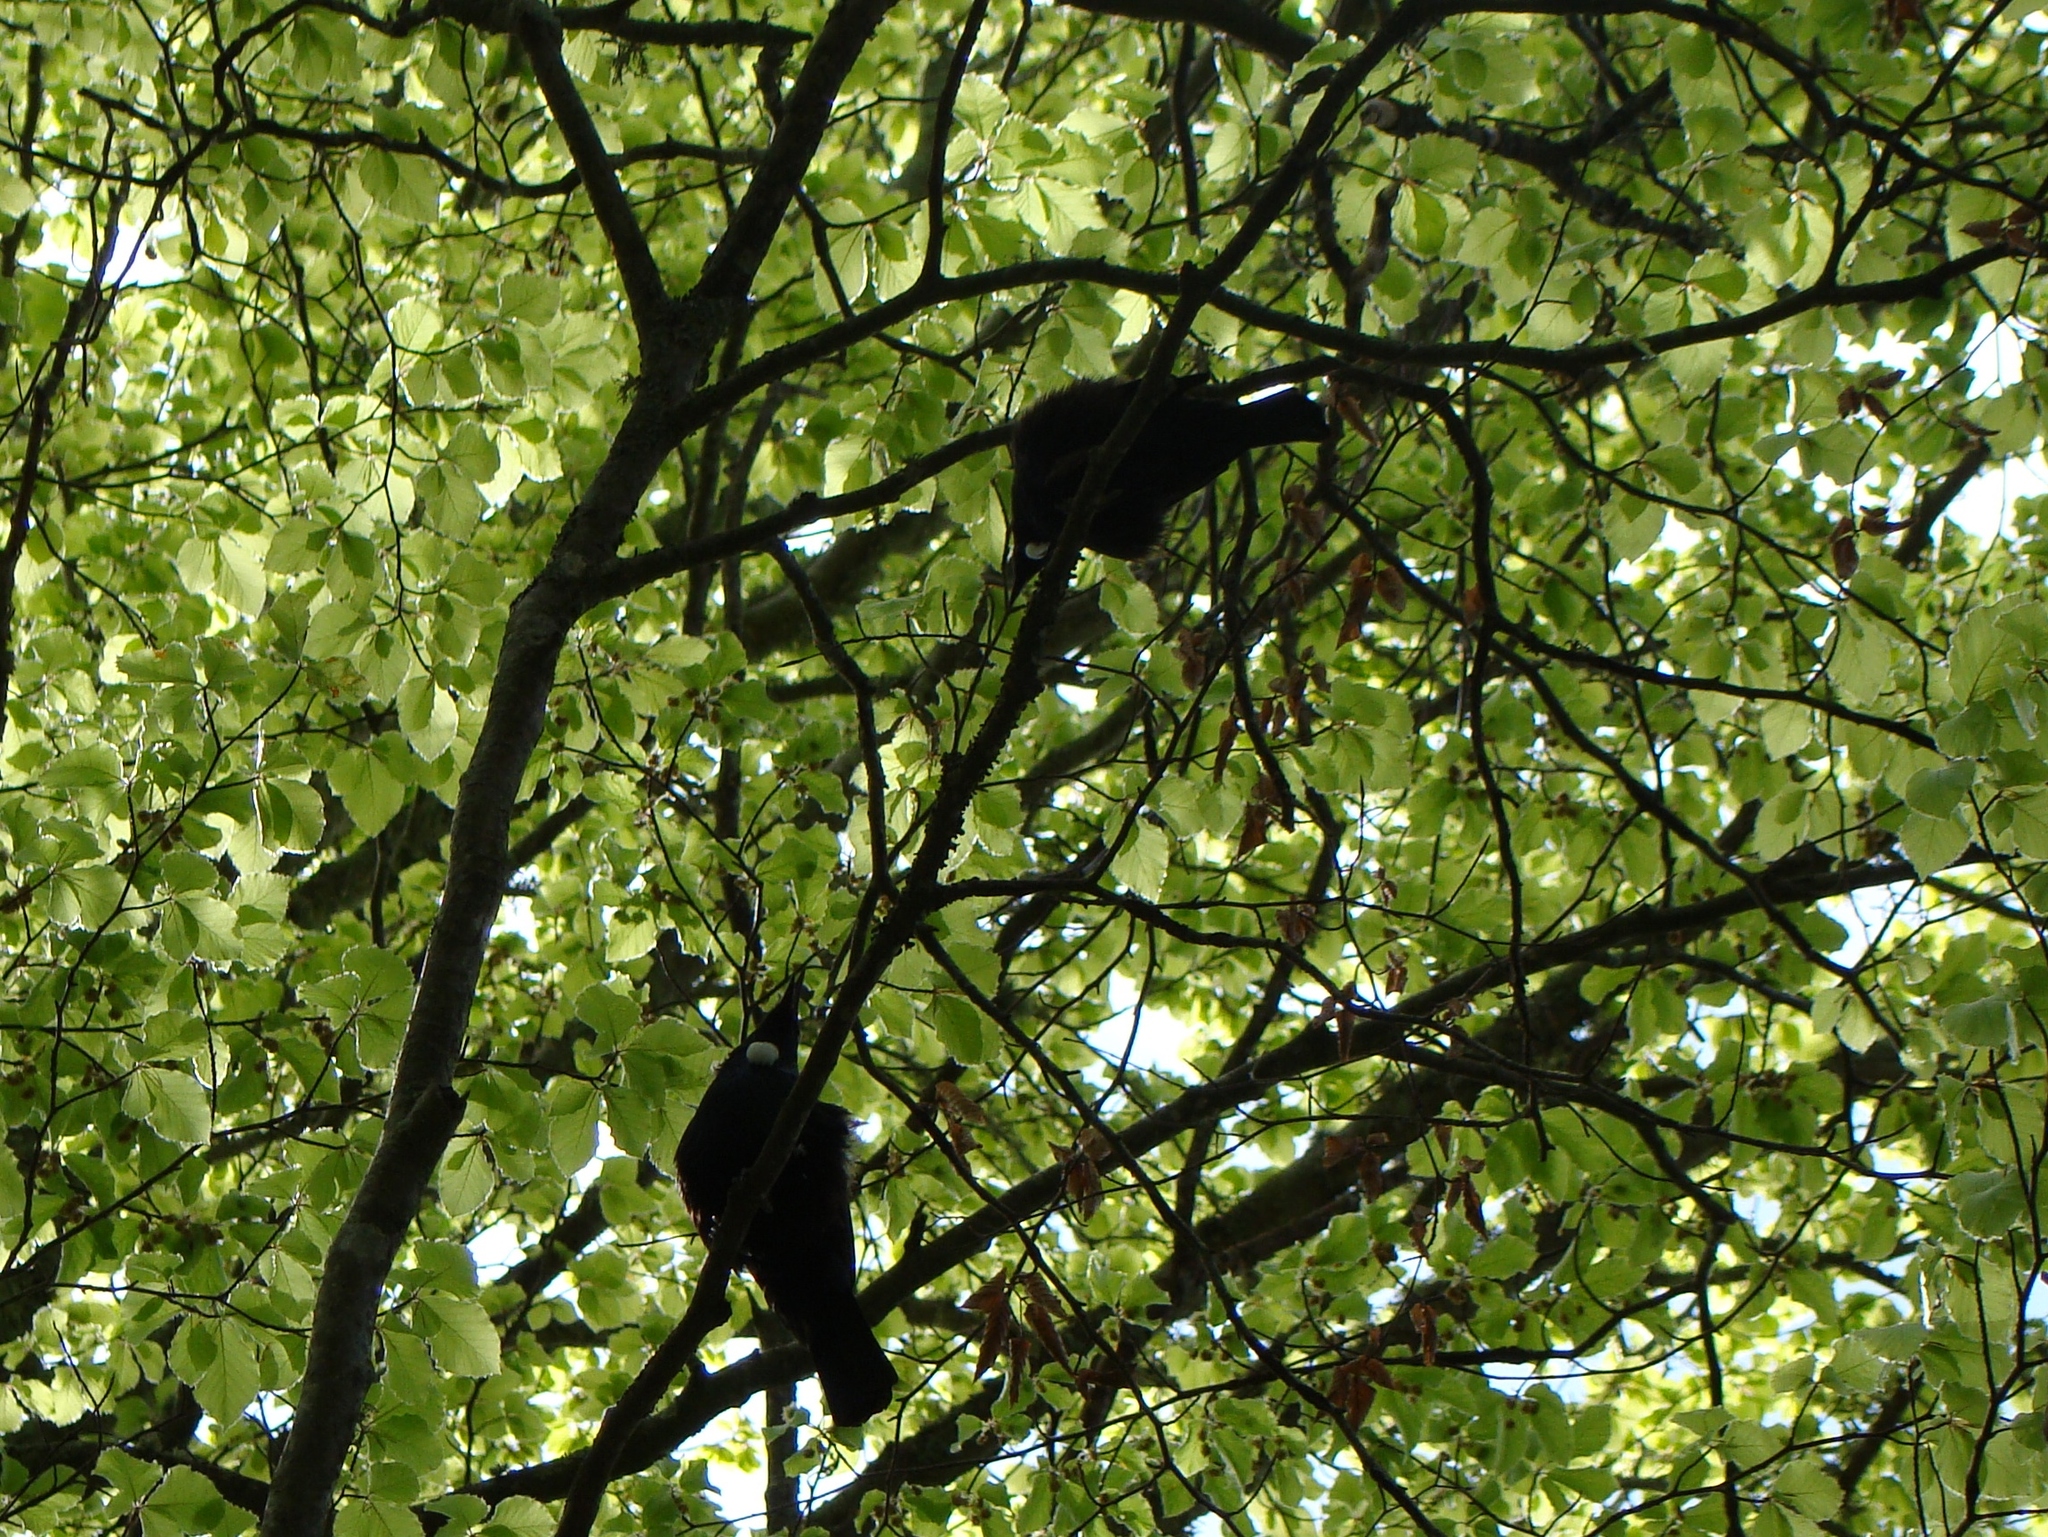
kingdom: Animalia
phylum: Chordata
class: Aves
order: Passeriformes
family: Meliphagidae
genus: Prosthemadera
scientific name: Prosthemadera novaeseelandiae
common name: Tui
